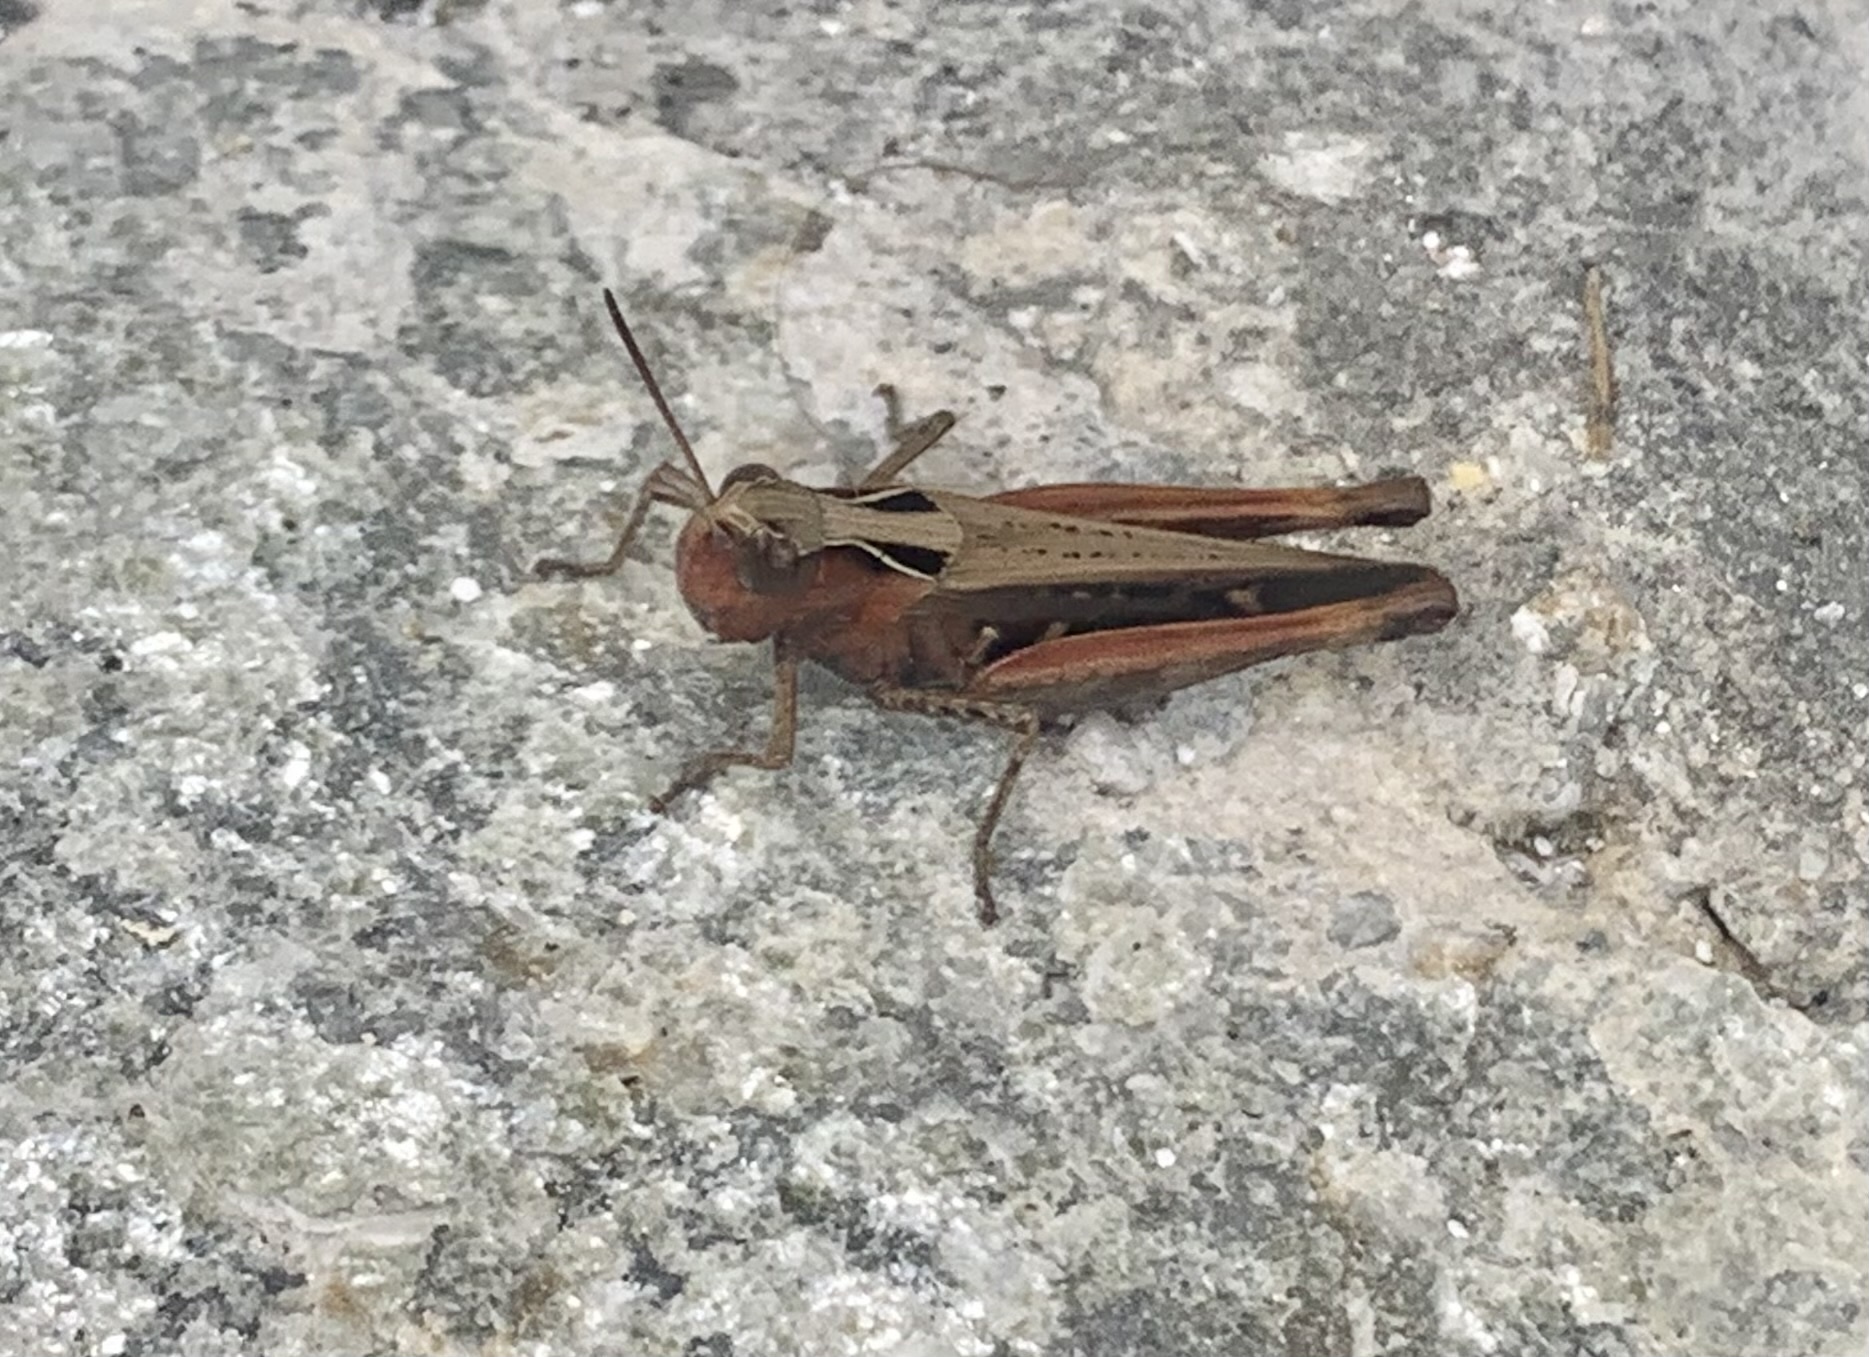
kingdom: Animalia
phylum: Arthropoda
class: Insecta
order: Orthoptera
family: Acrididae
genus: Omocestus
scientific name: Omocestus rufipes
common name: Woodland grasshopper
